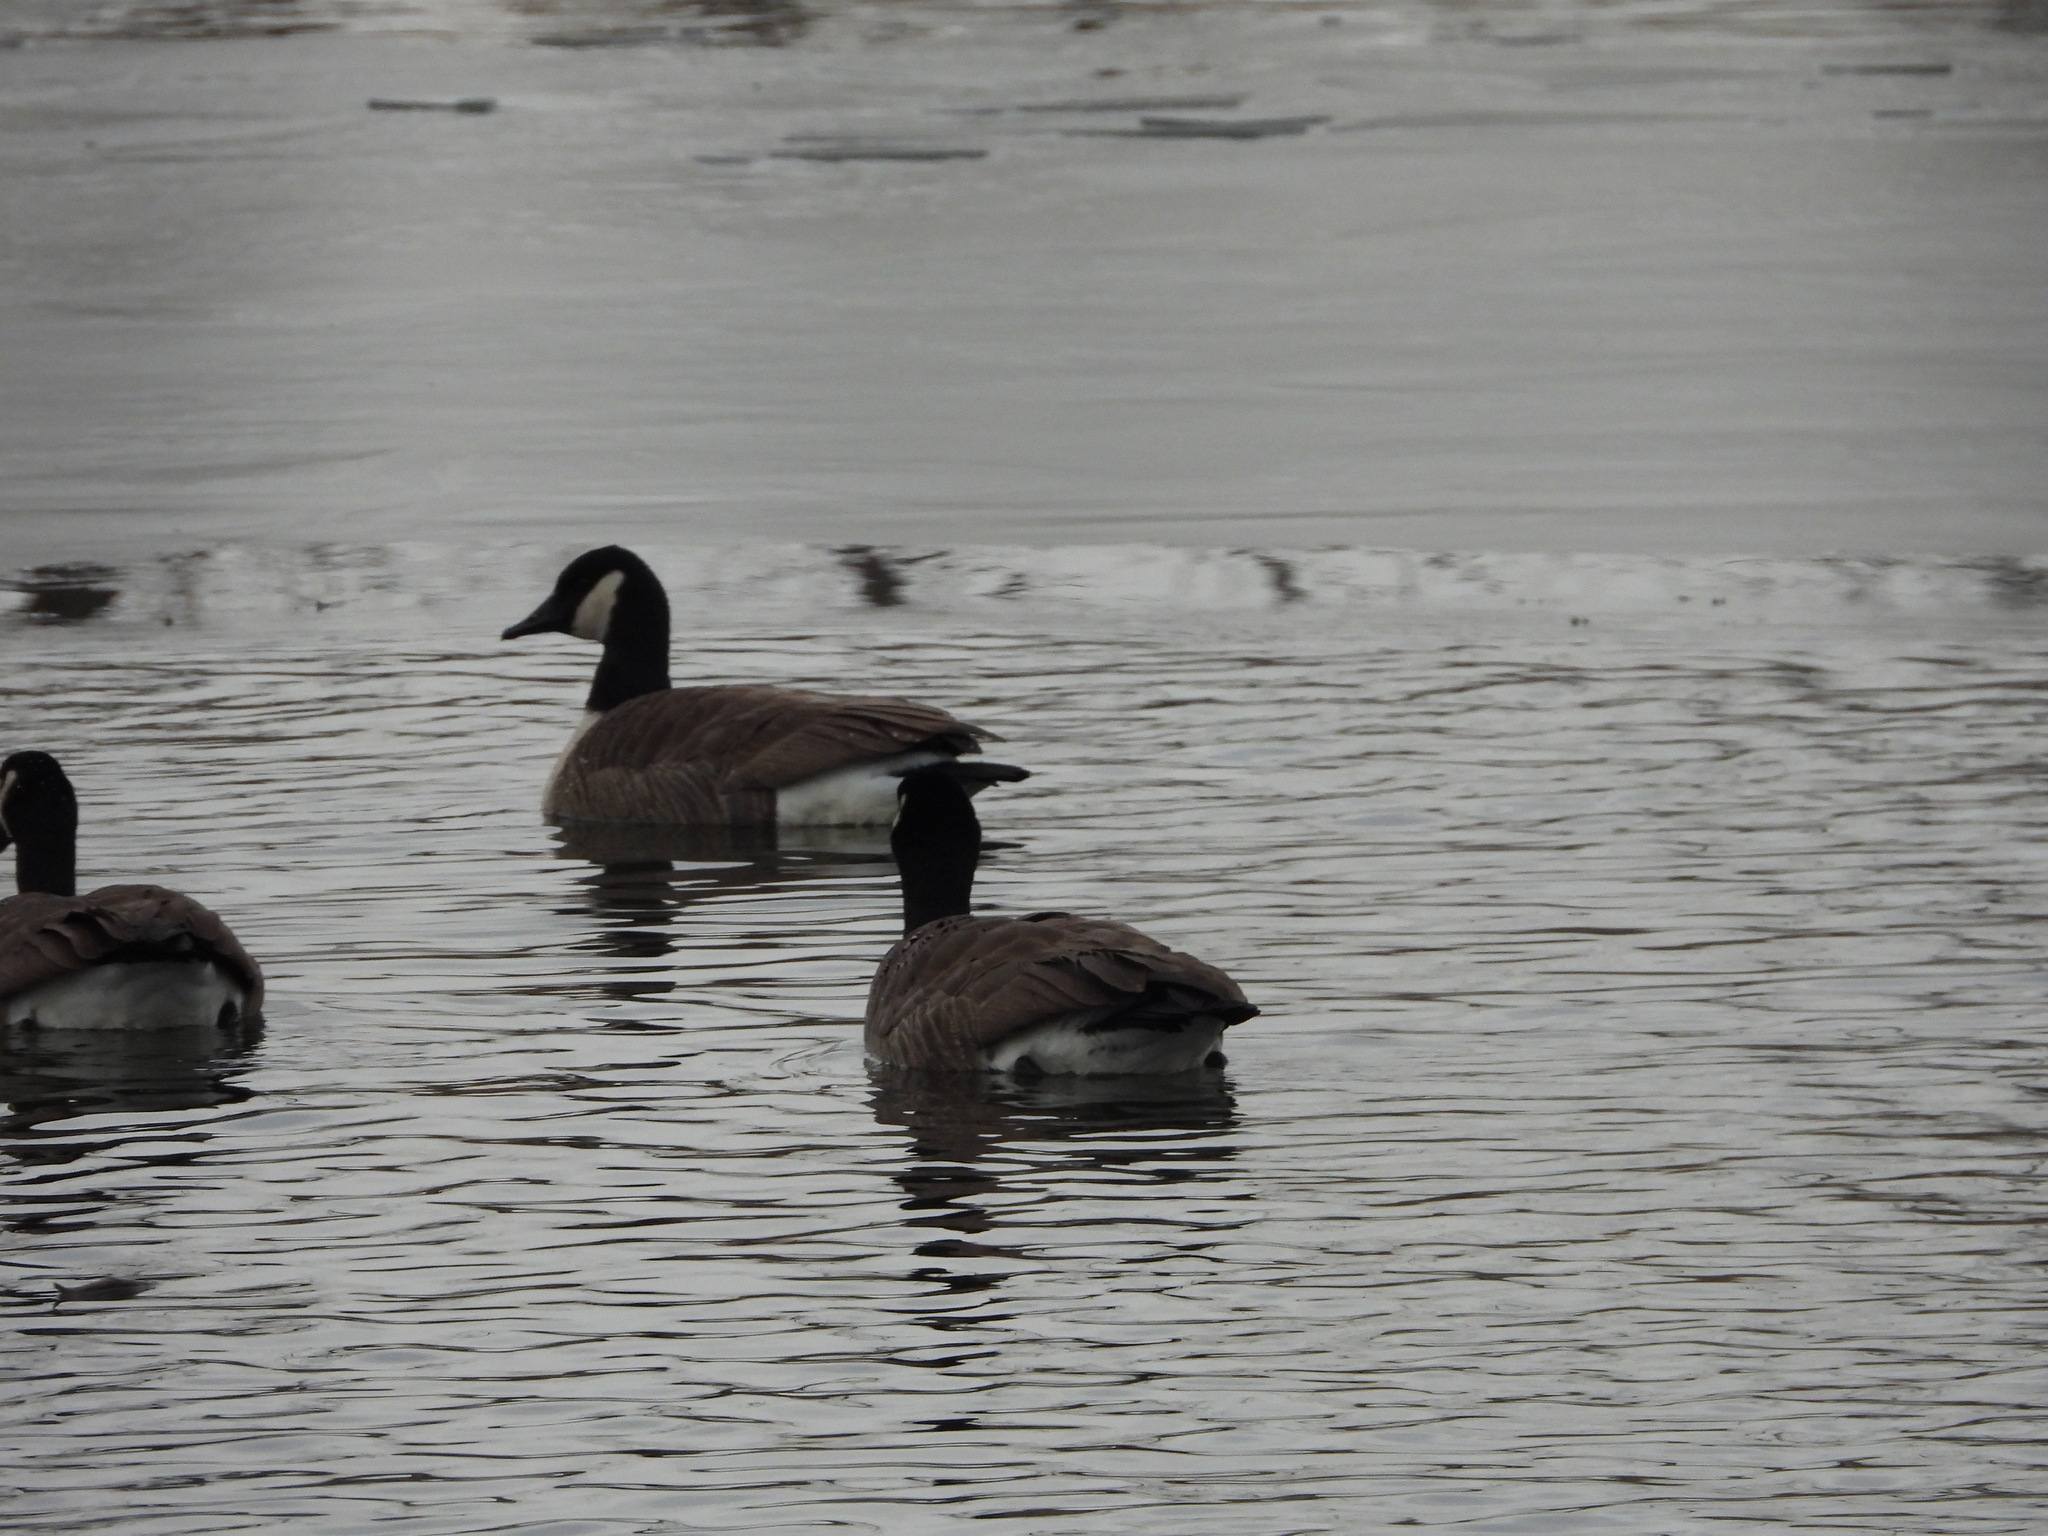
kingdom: Animalia
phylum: Chordata
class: Aves
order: Anseriformes
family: Anatidae
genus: Branta
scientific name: Branta canadensis
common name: Canada goose
